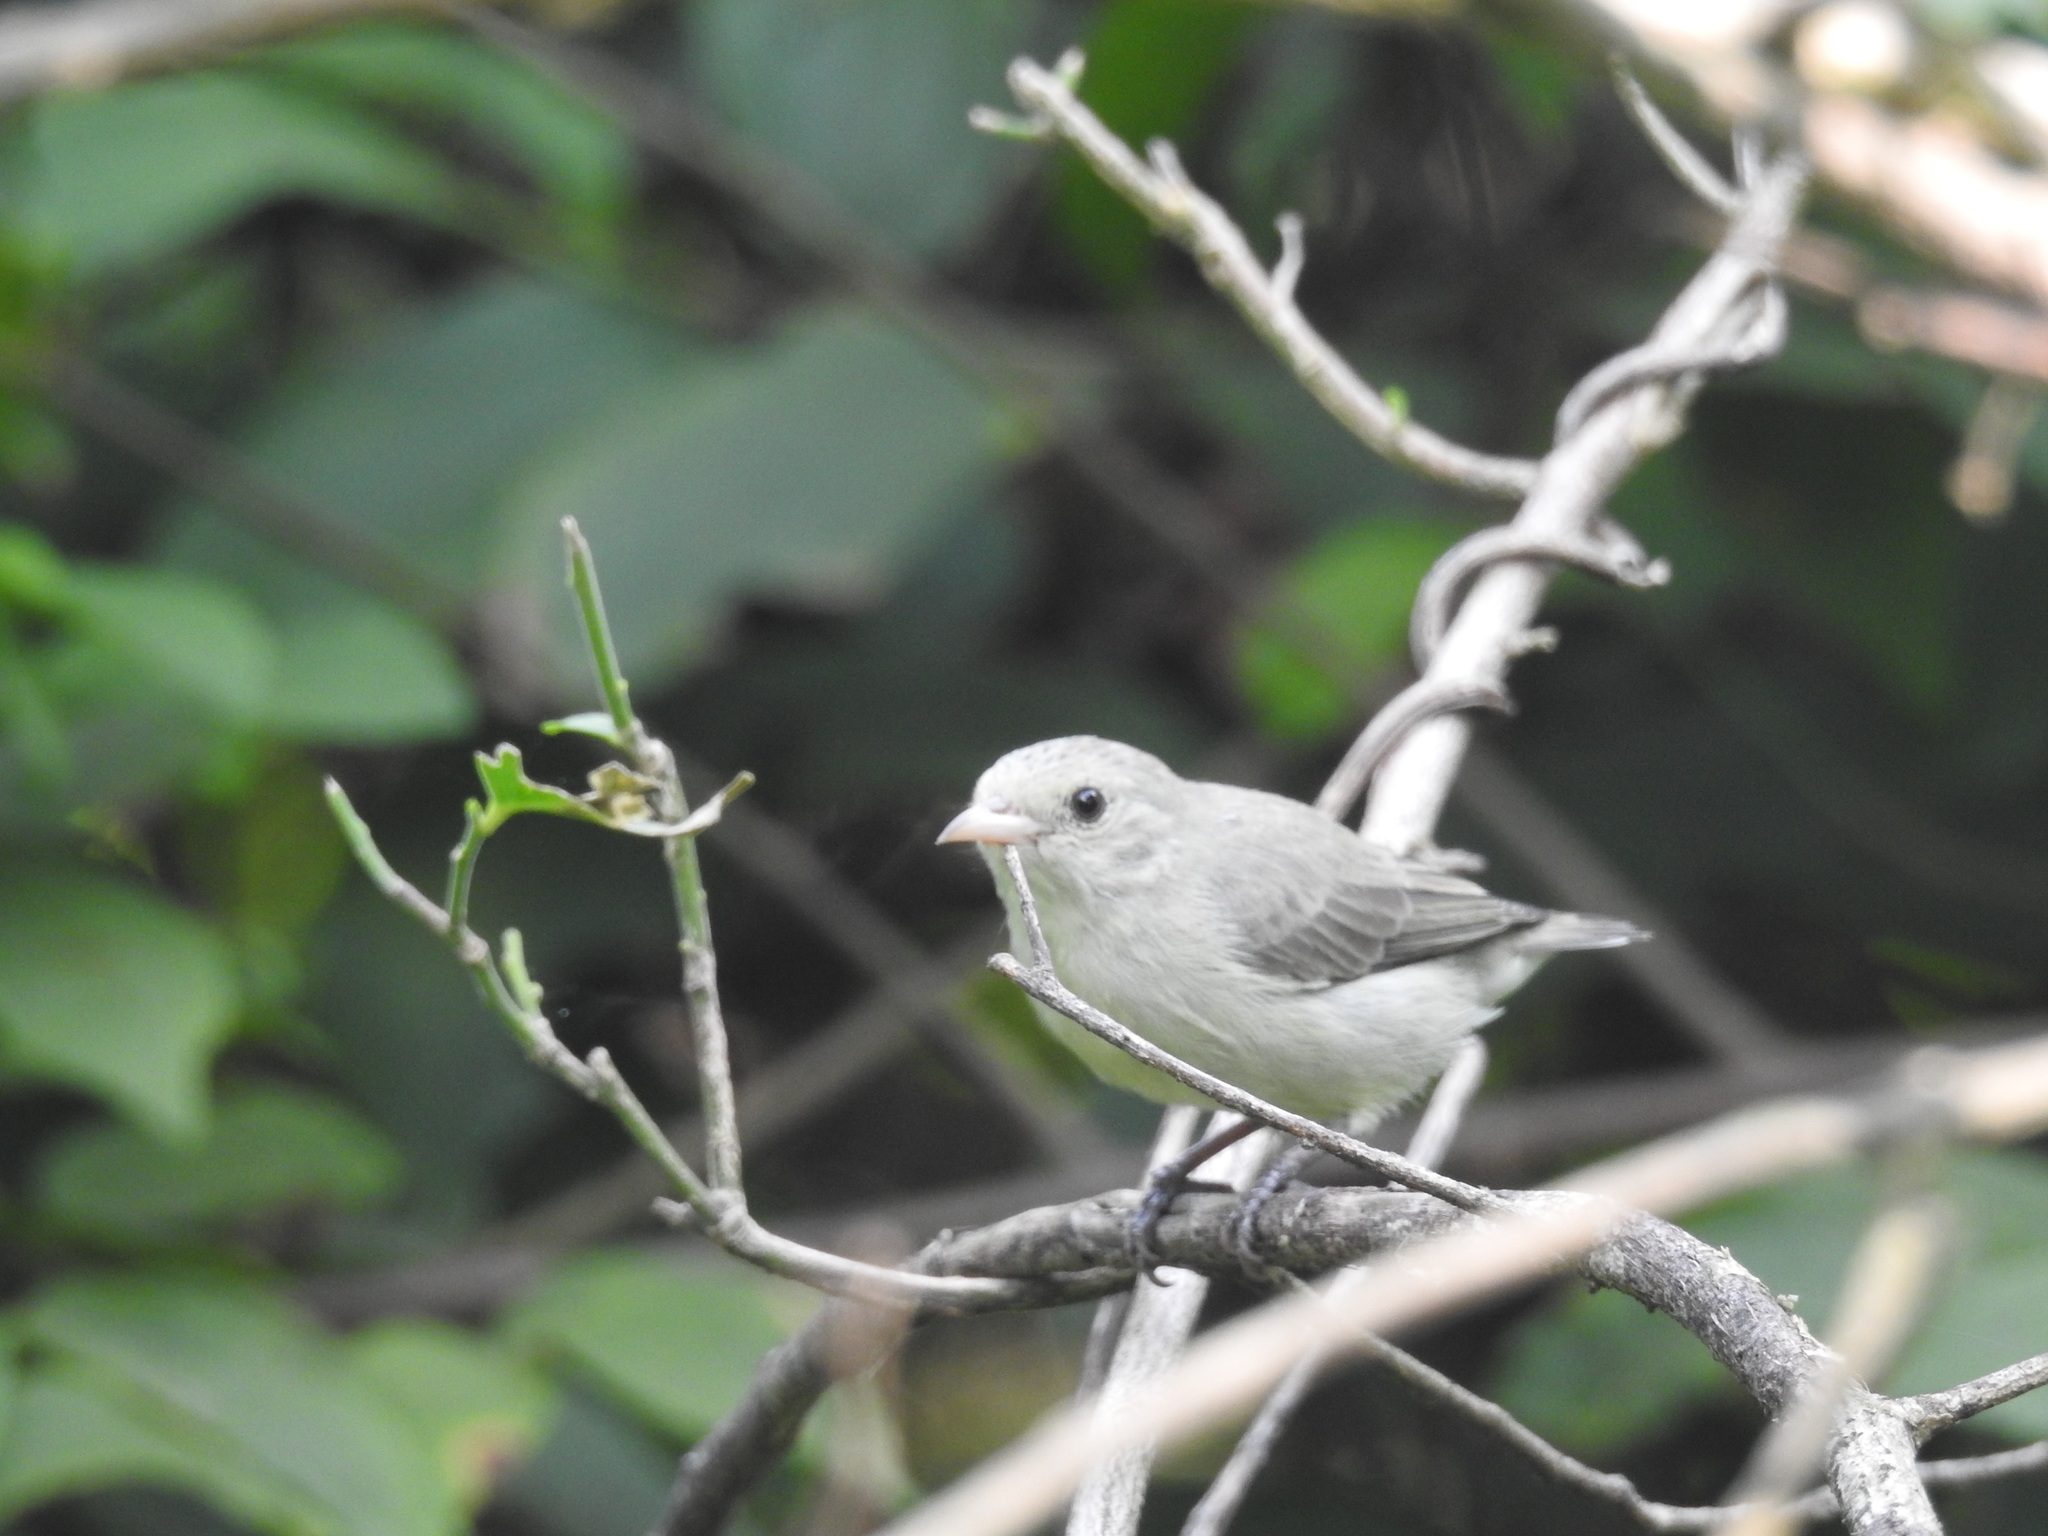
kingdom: Animalia
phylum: Chordata
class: Aves
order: Passeriformes
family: Dicaeidae
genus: Dicaeum
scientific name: Dicaeum erythrorhynchos
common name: Pale-billed flowerpecker
